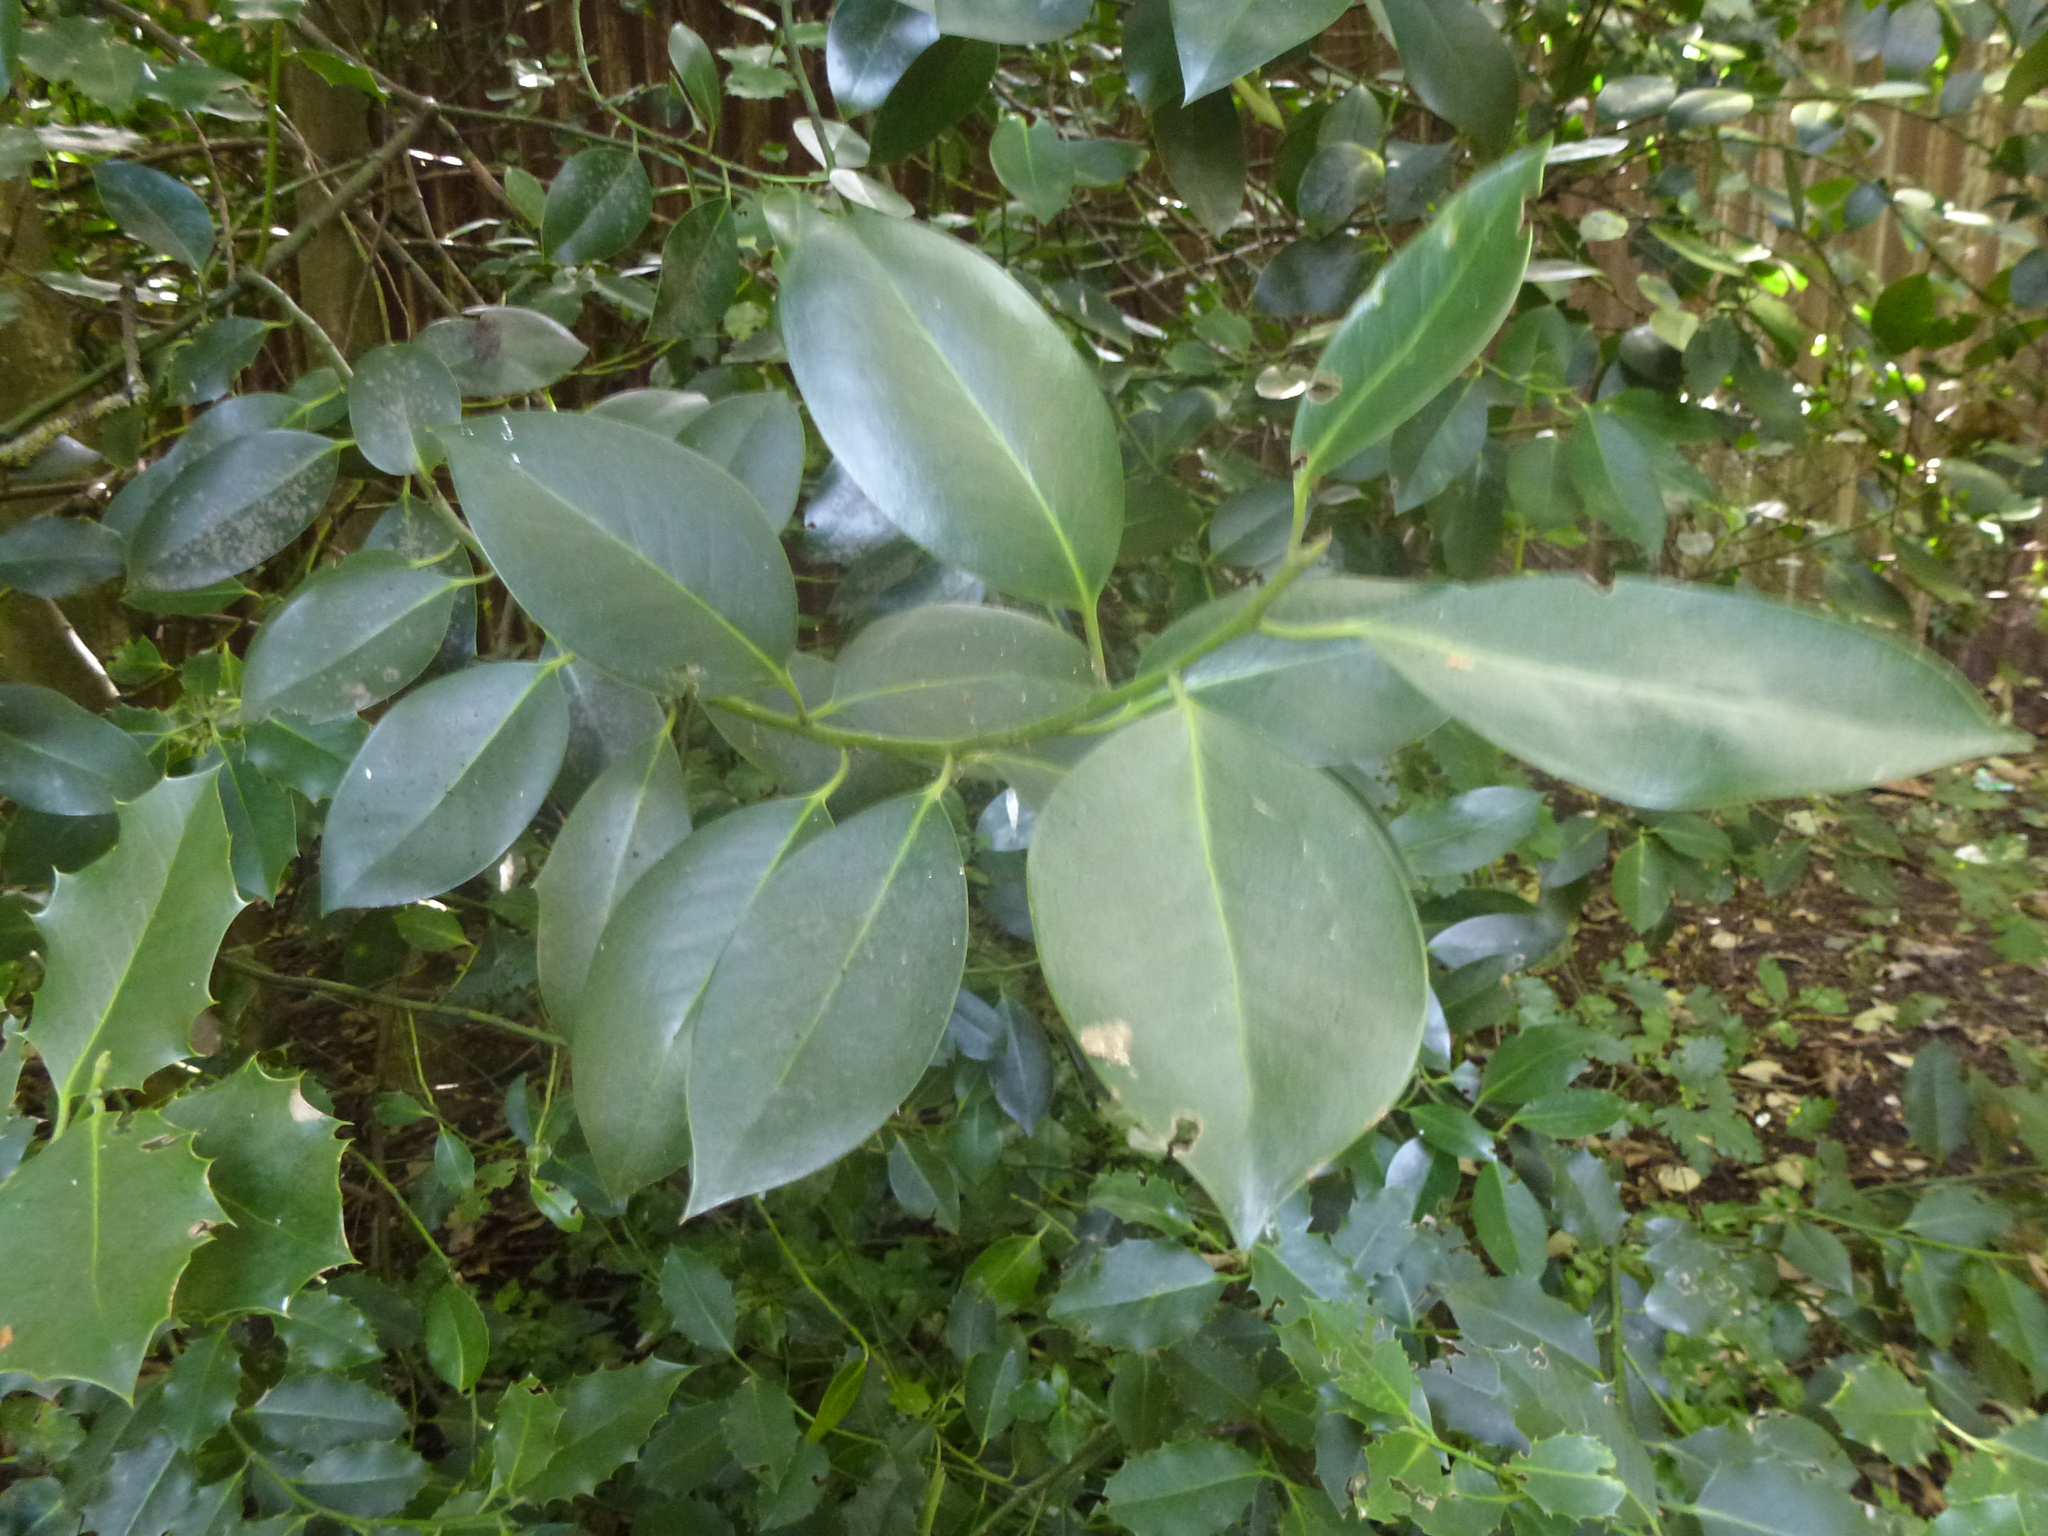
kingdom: Plantae
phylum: Tracheophyta
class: Magnoliopsida
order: Aquifoliales
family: Aquifoliaceae
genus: Ilex
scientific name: Ilex aquifolium
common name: English holly
